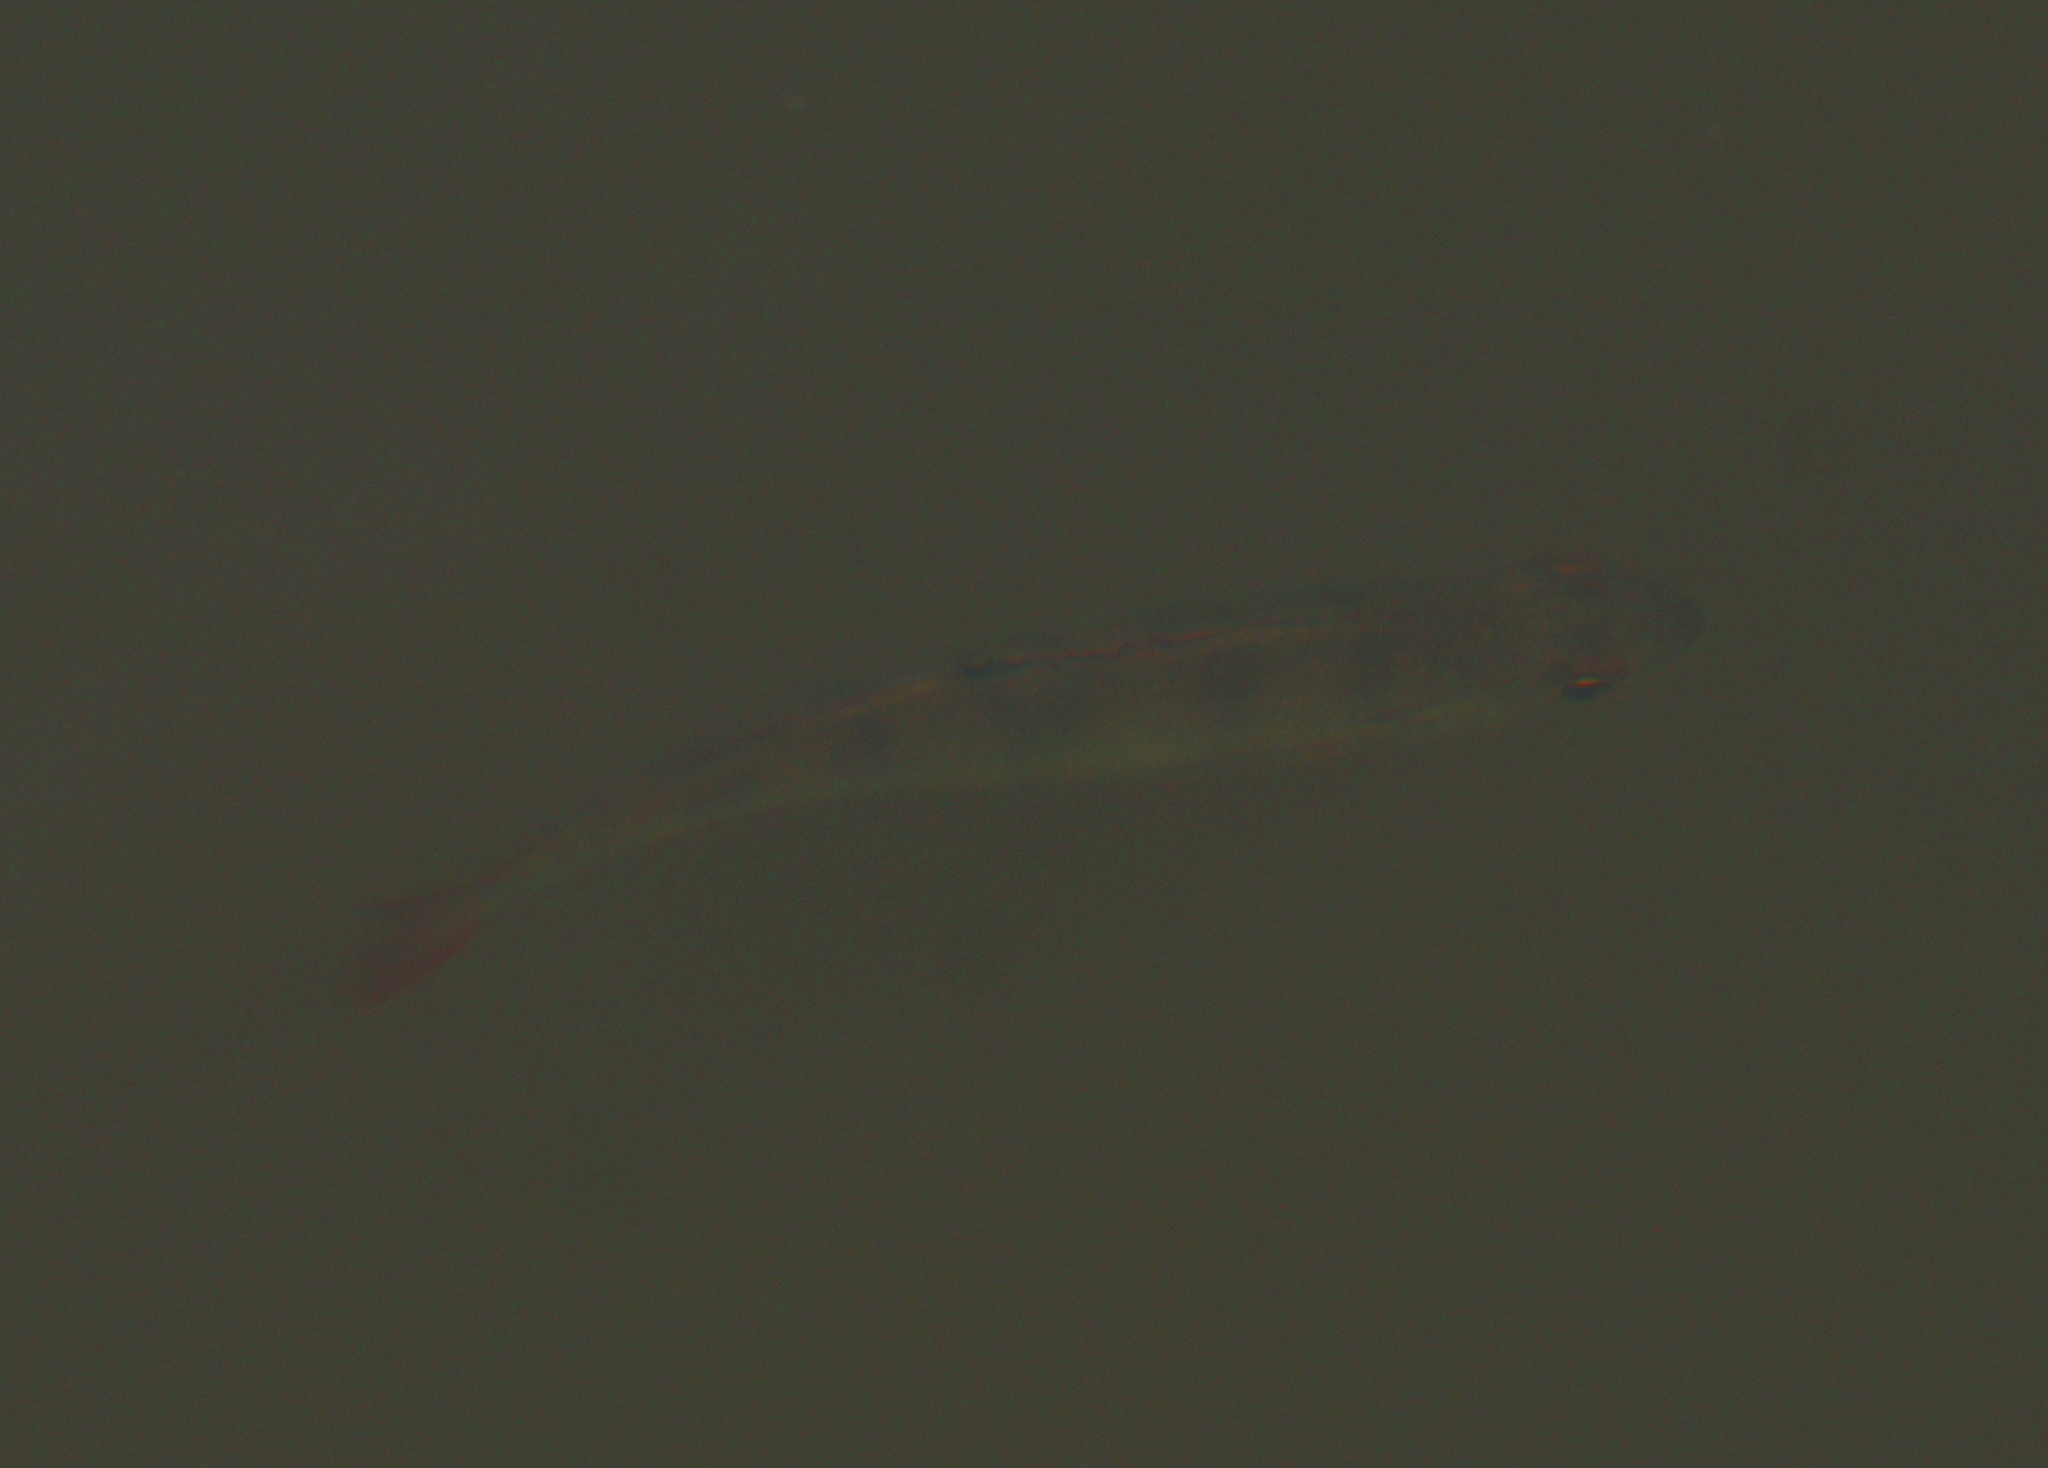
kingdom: Animalia
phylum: Chordata
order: Perciformes
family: Percidae
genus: Perca
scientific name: Perca fluviatilis
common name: Perch
